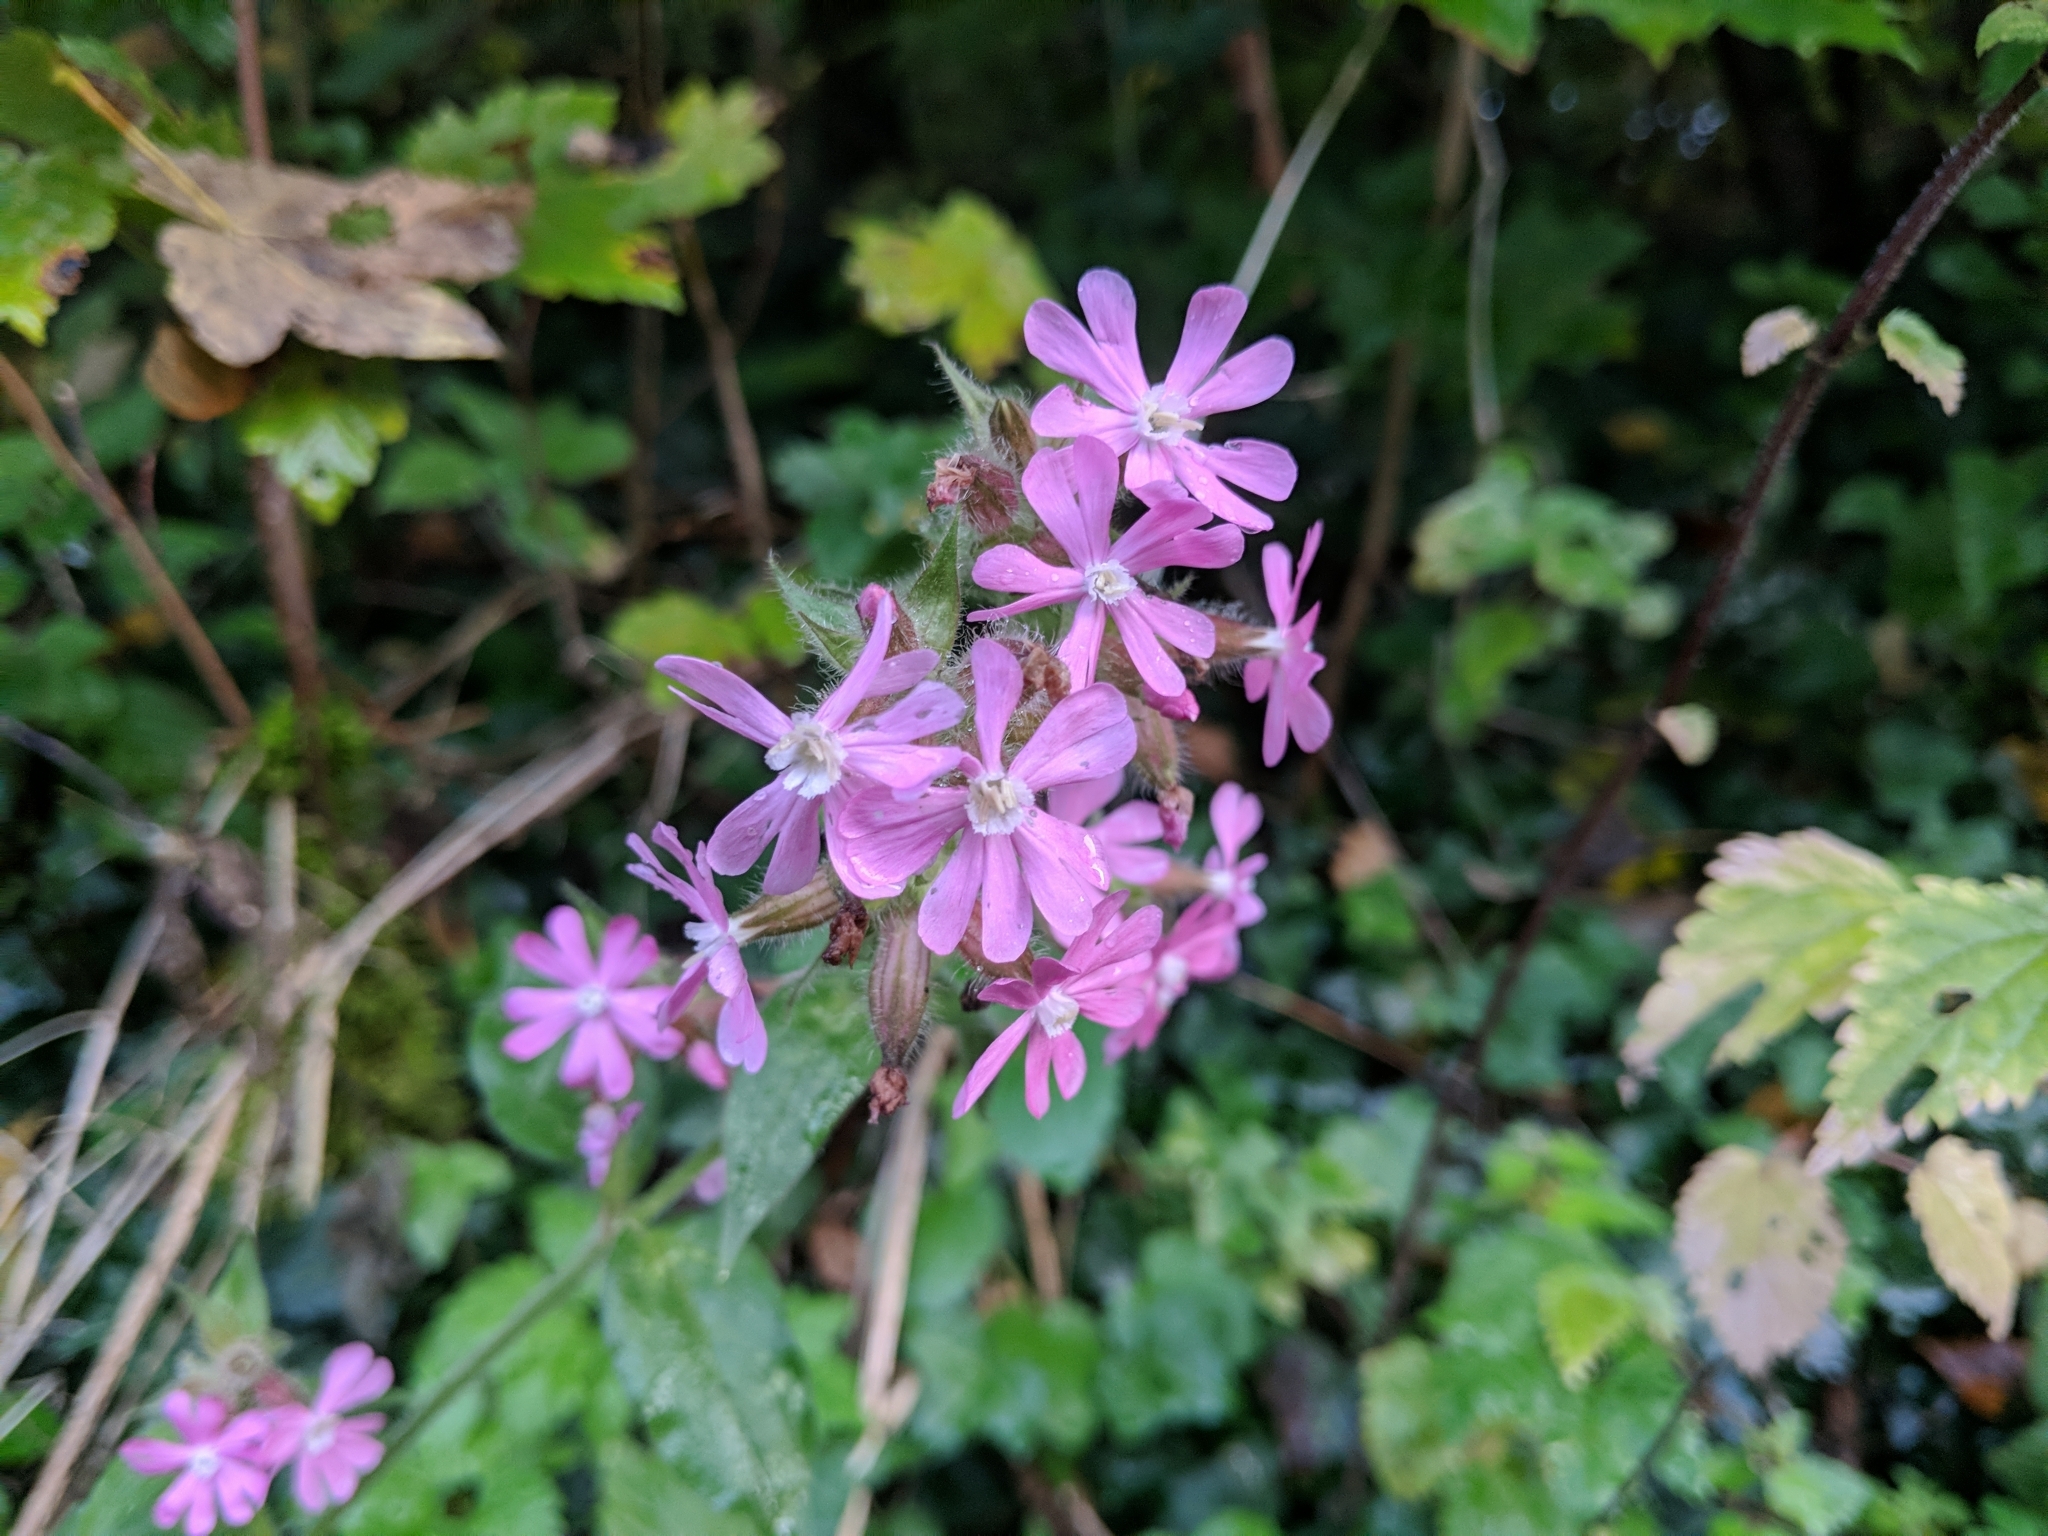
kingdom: Plantae
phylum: Tracheophyta
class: Magnoliopsida
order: Caryophyllales
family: Caryophyllaceae
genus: Silene
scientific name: Silene dioica
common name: Red campion
